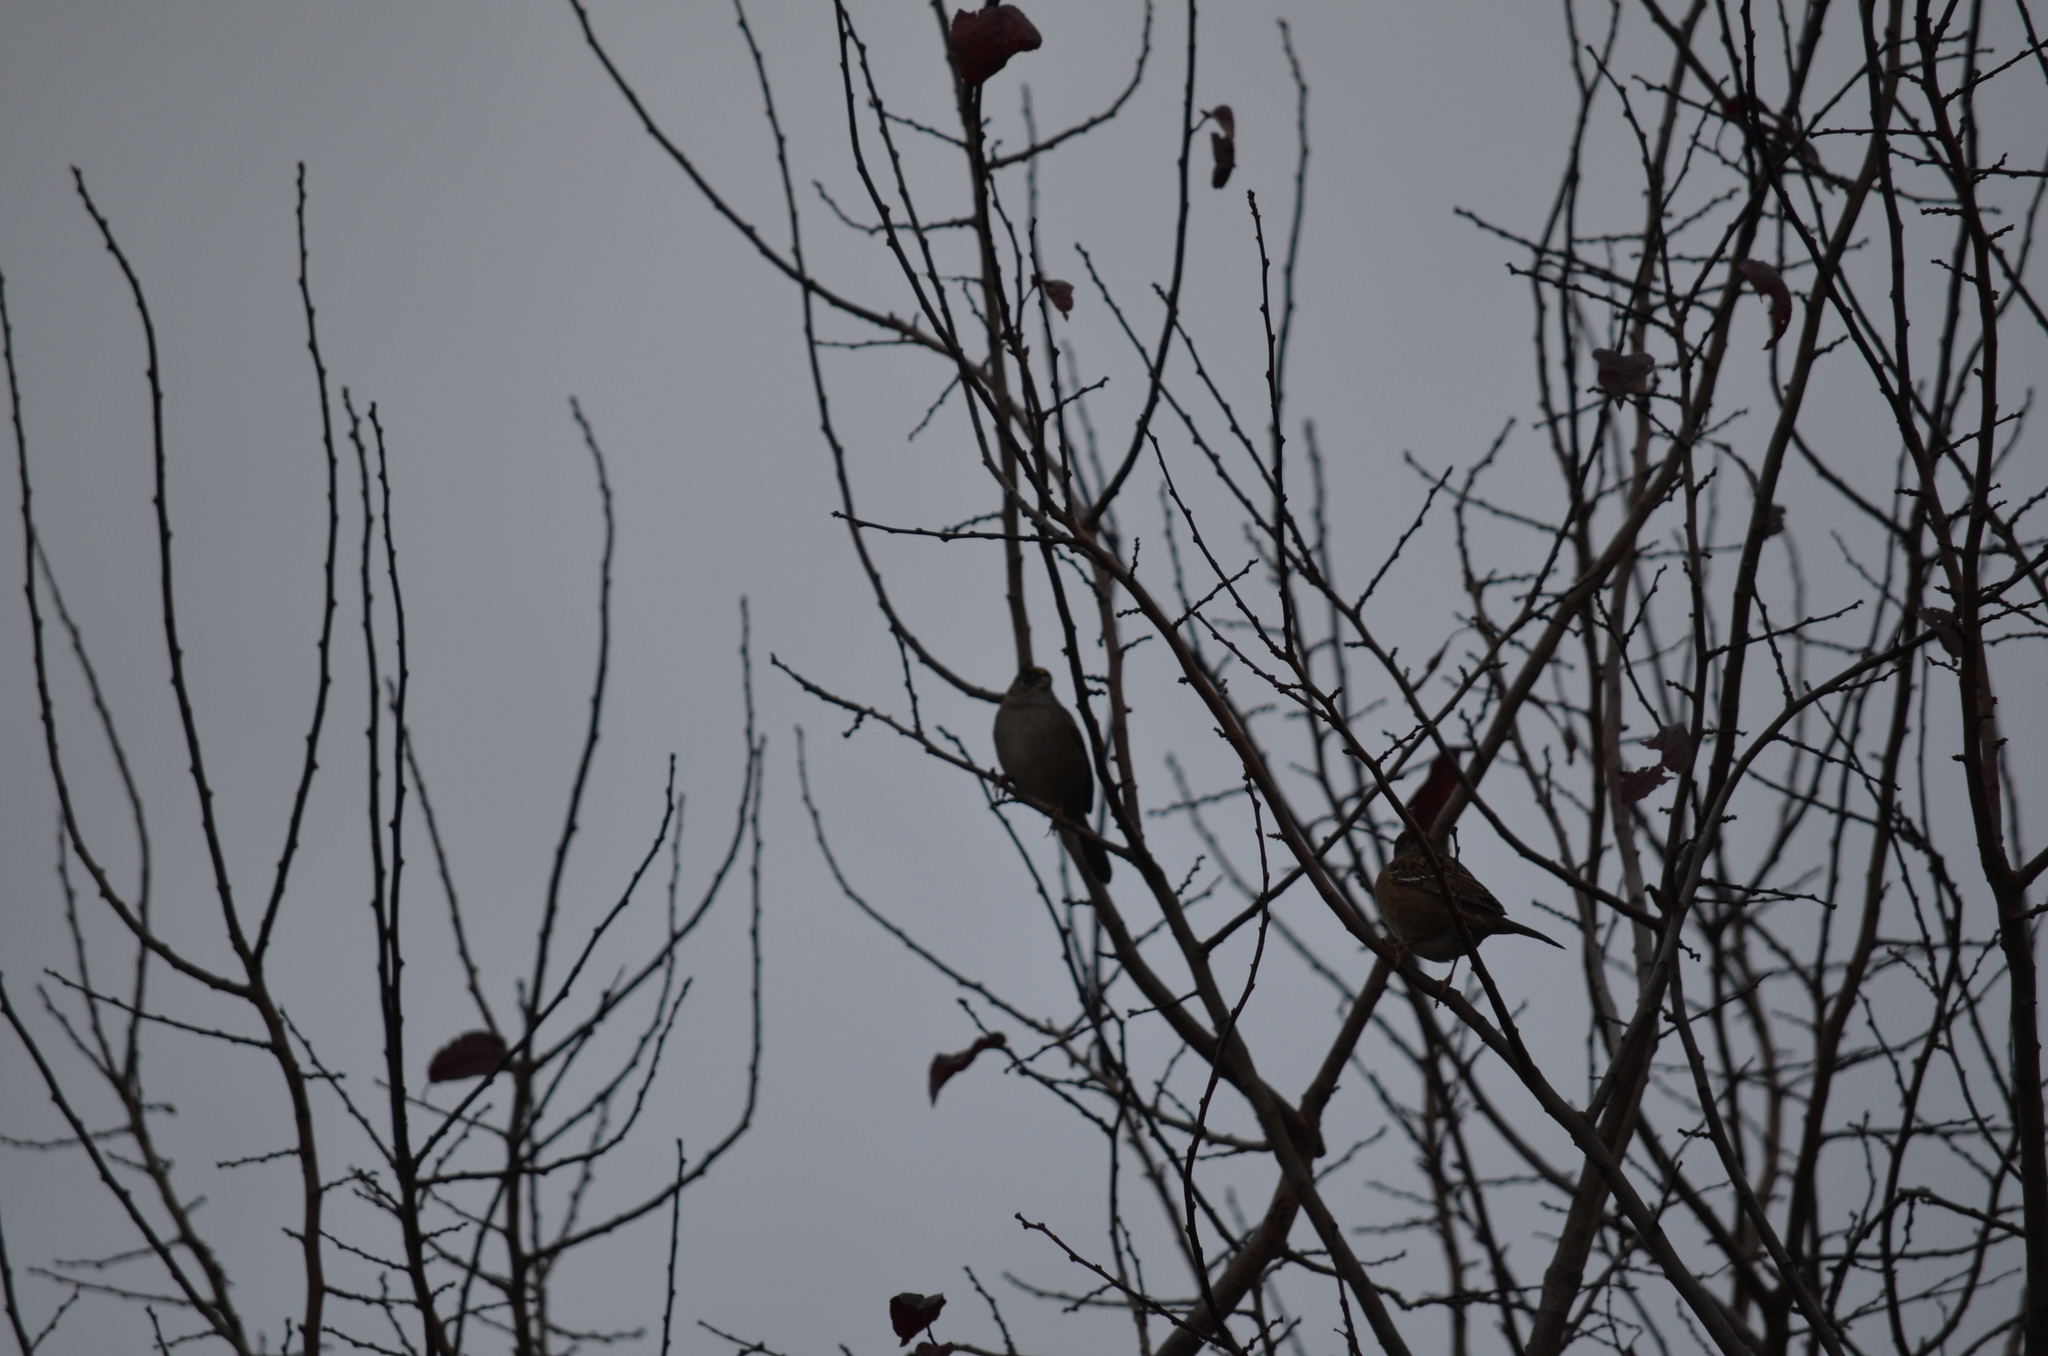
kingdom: Animalia
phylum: Chordata
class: Aves
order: Passeriformes
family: Passerellidae
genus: Zonotrichia
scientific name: Zonotrichia atricapilla
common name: Golden-crowned sparrow
